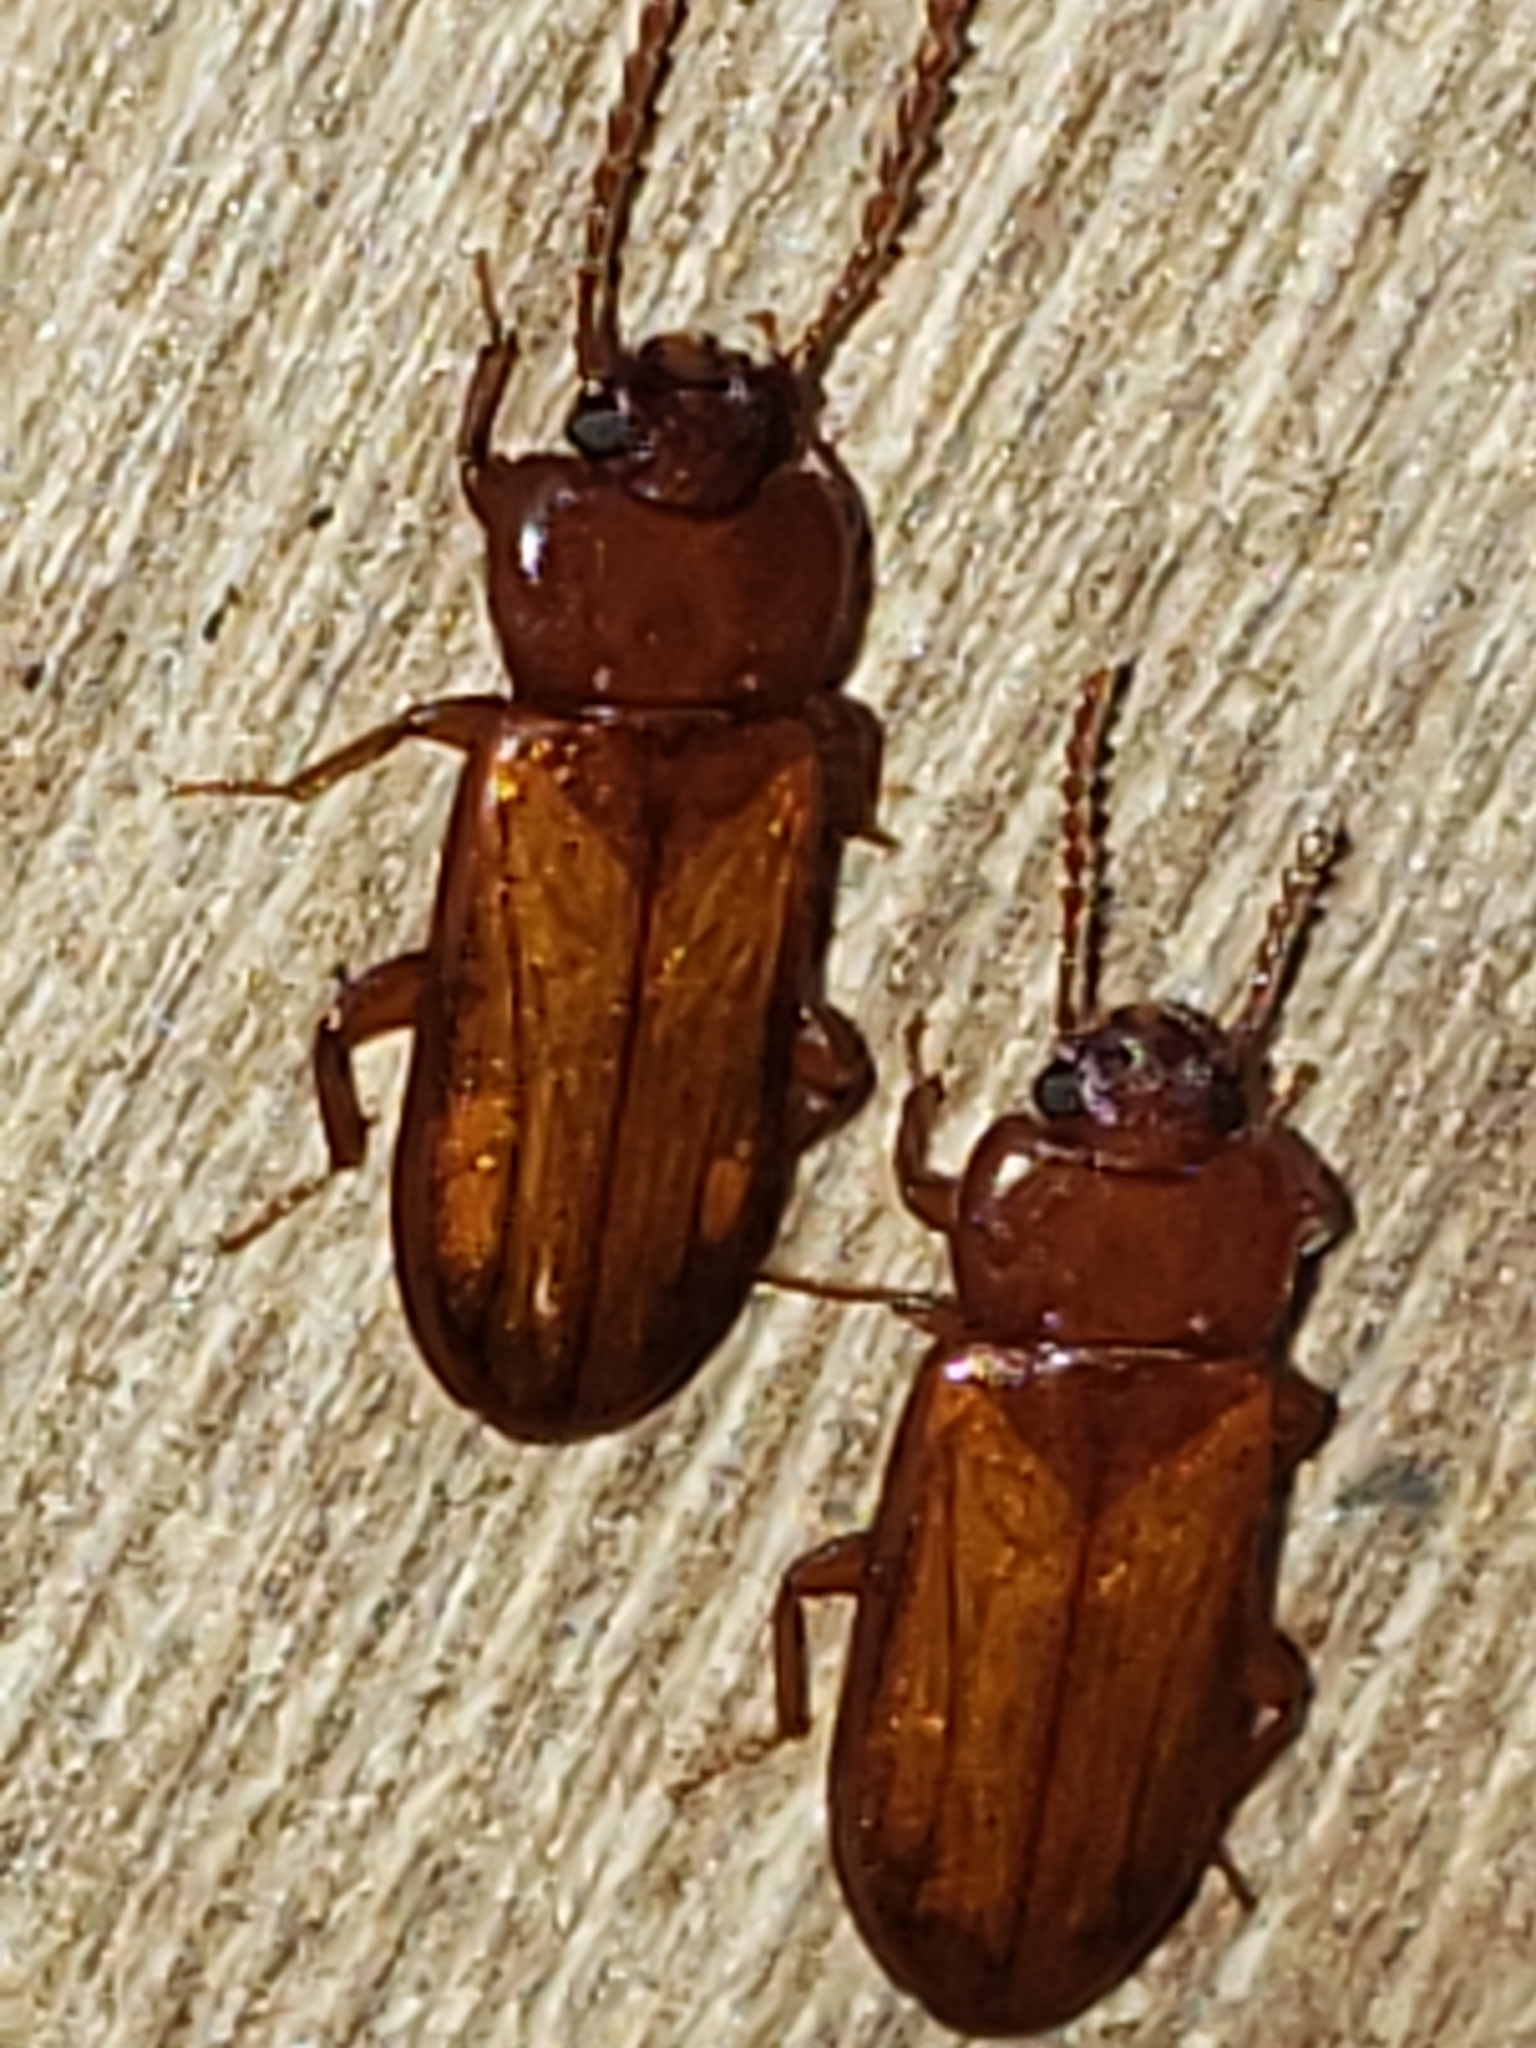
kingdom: Animalia
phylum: Arthropoda
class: Insecta
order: Coleoptera
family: Tenebrionidae
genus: Adelina
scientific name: Adelina pallida
